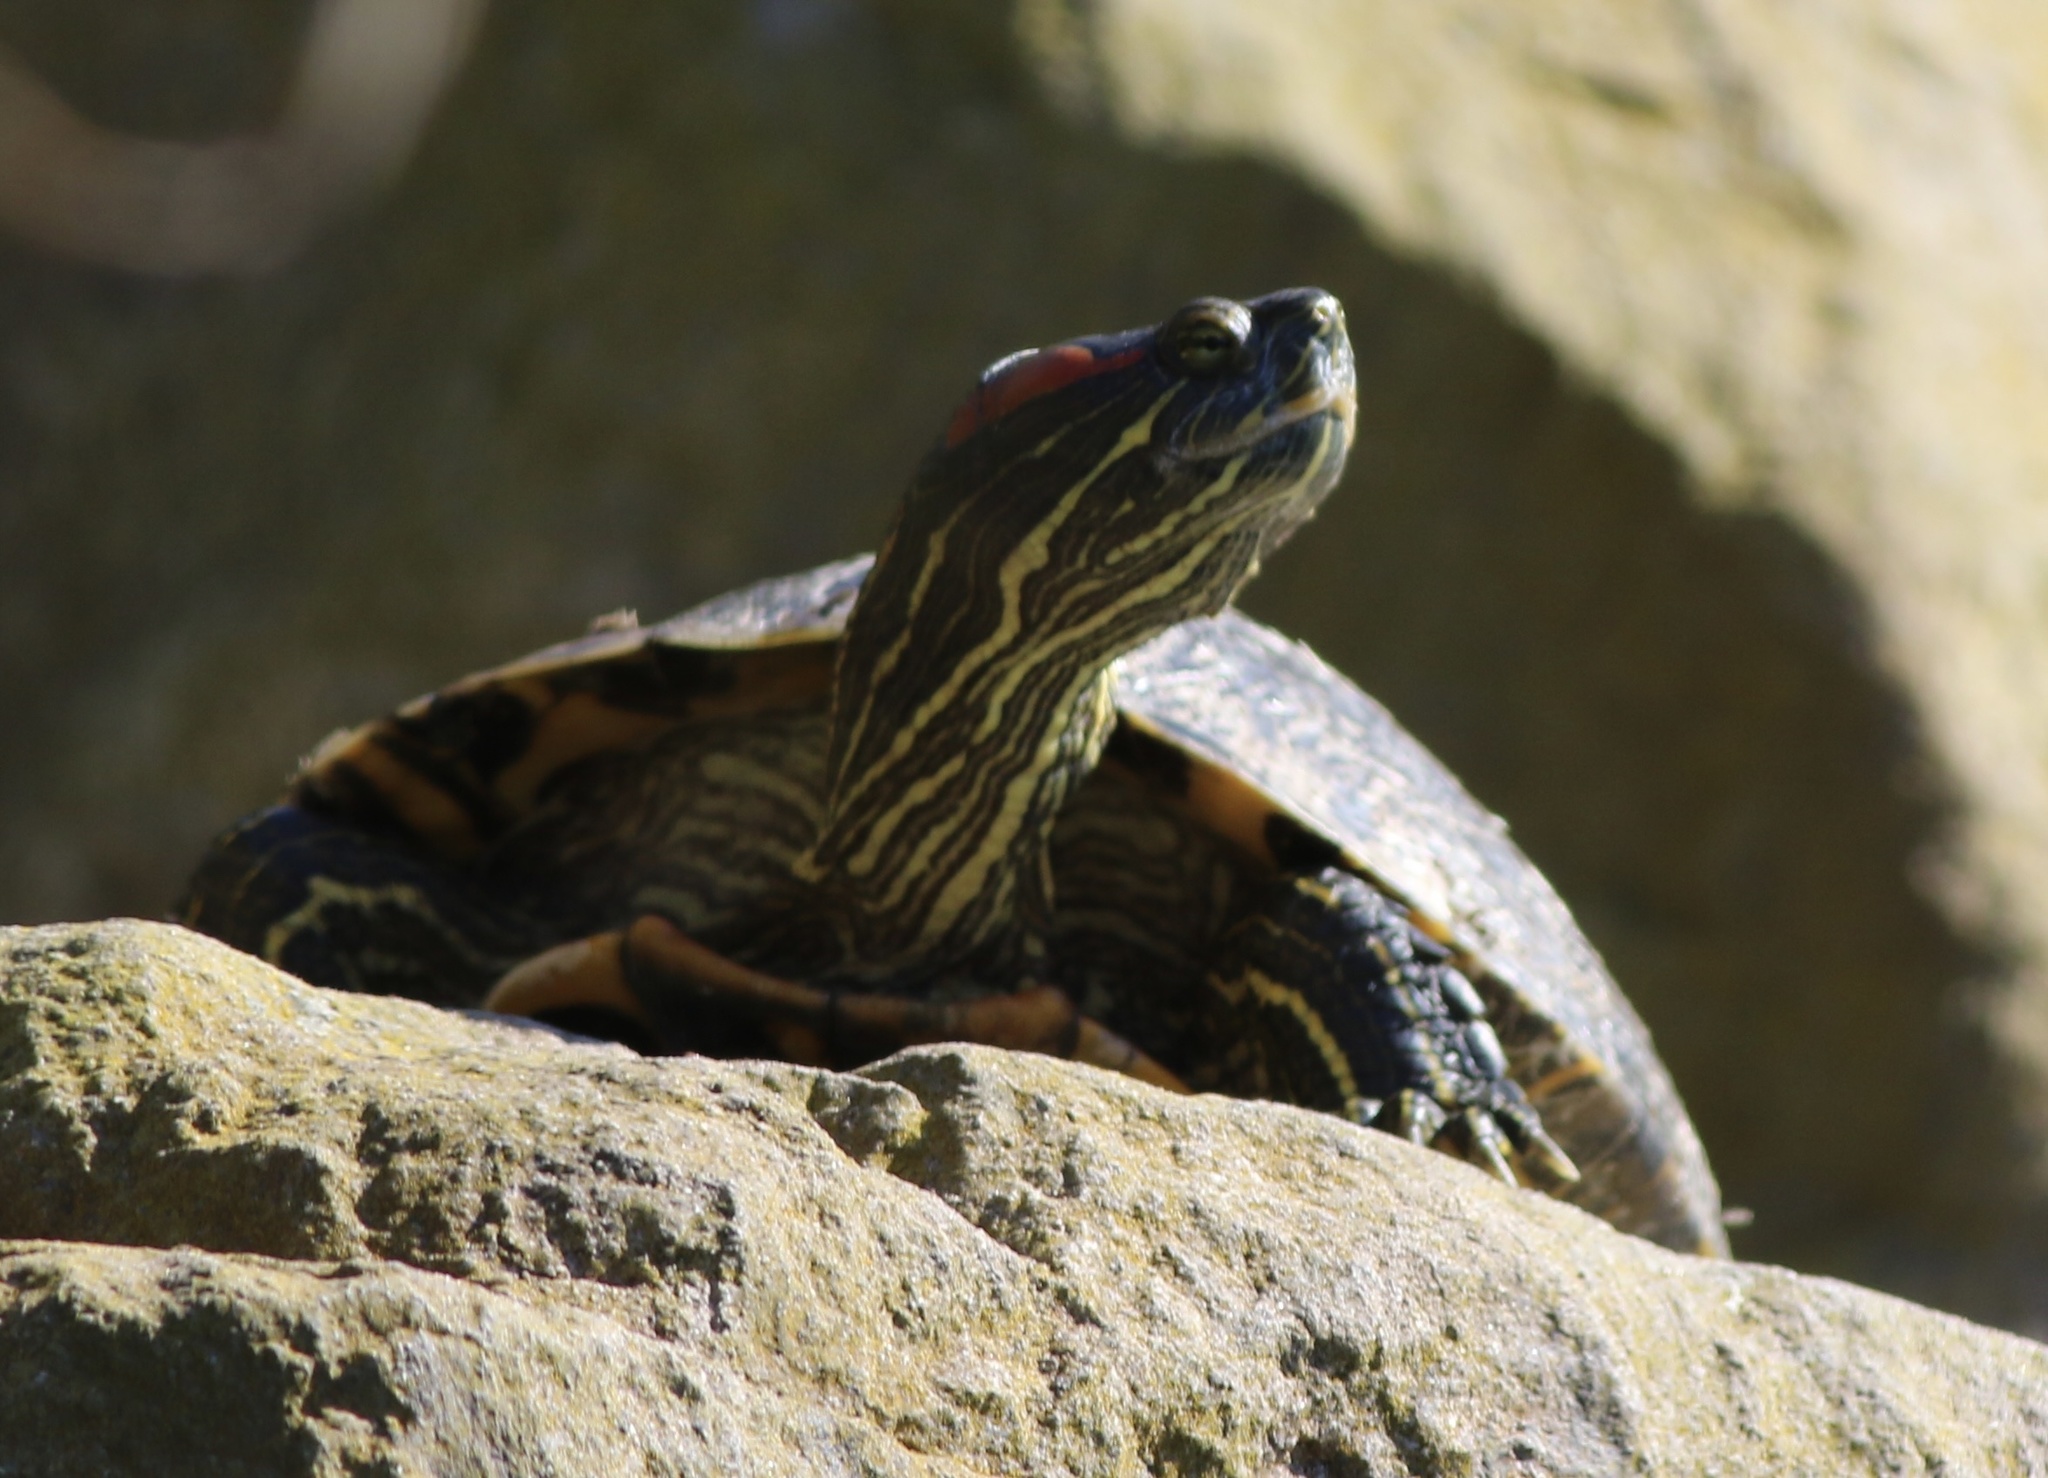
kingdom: Animalia
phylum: Chordata
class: Testudines
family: Emydidae
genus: Trachemys
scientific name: Trachemys scripta
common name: Slider
